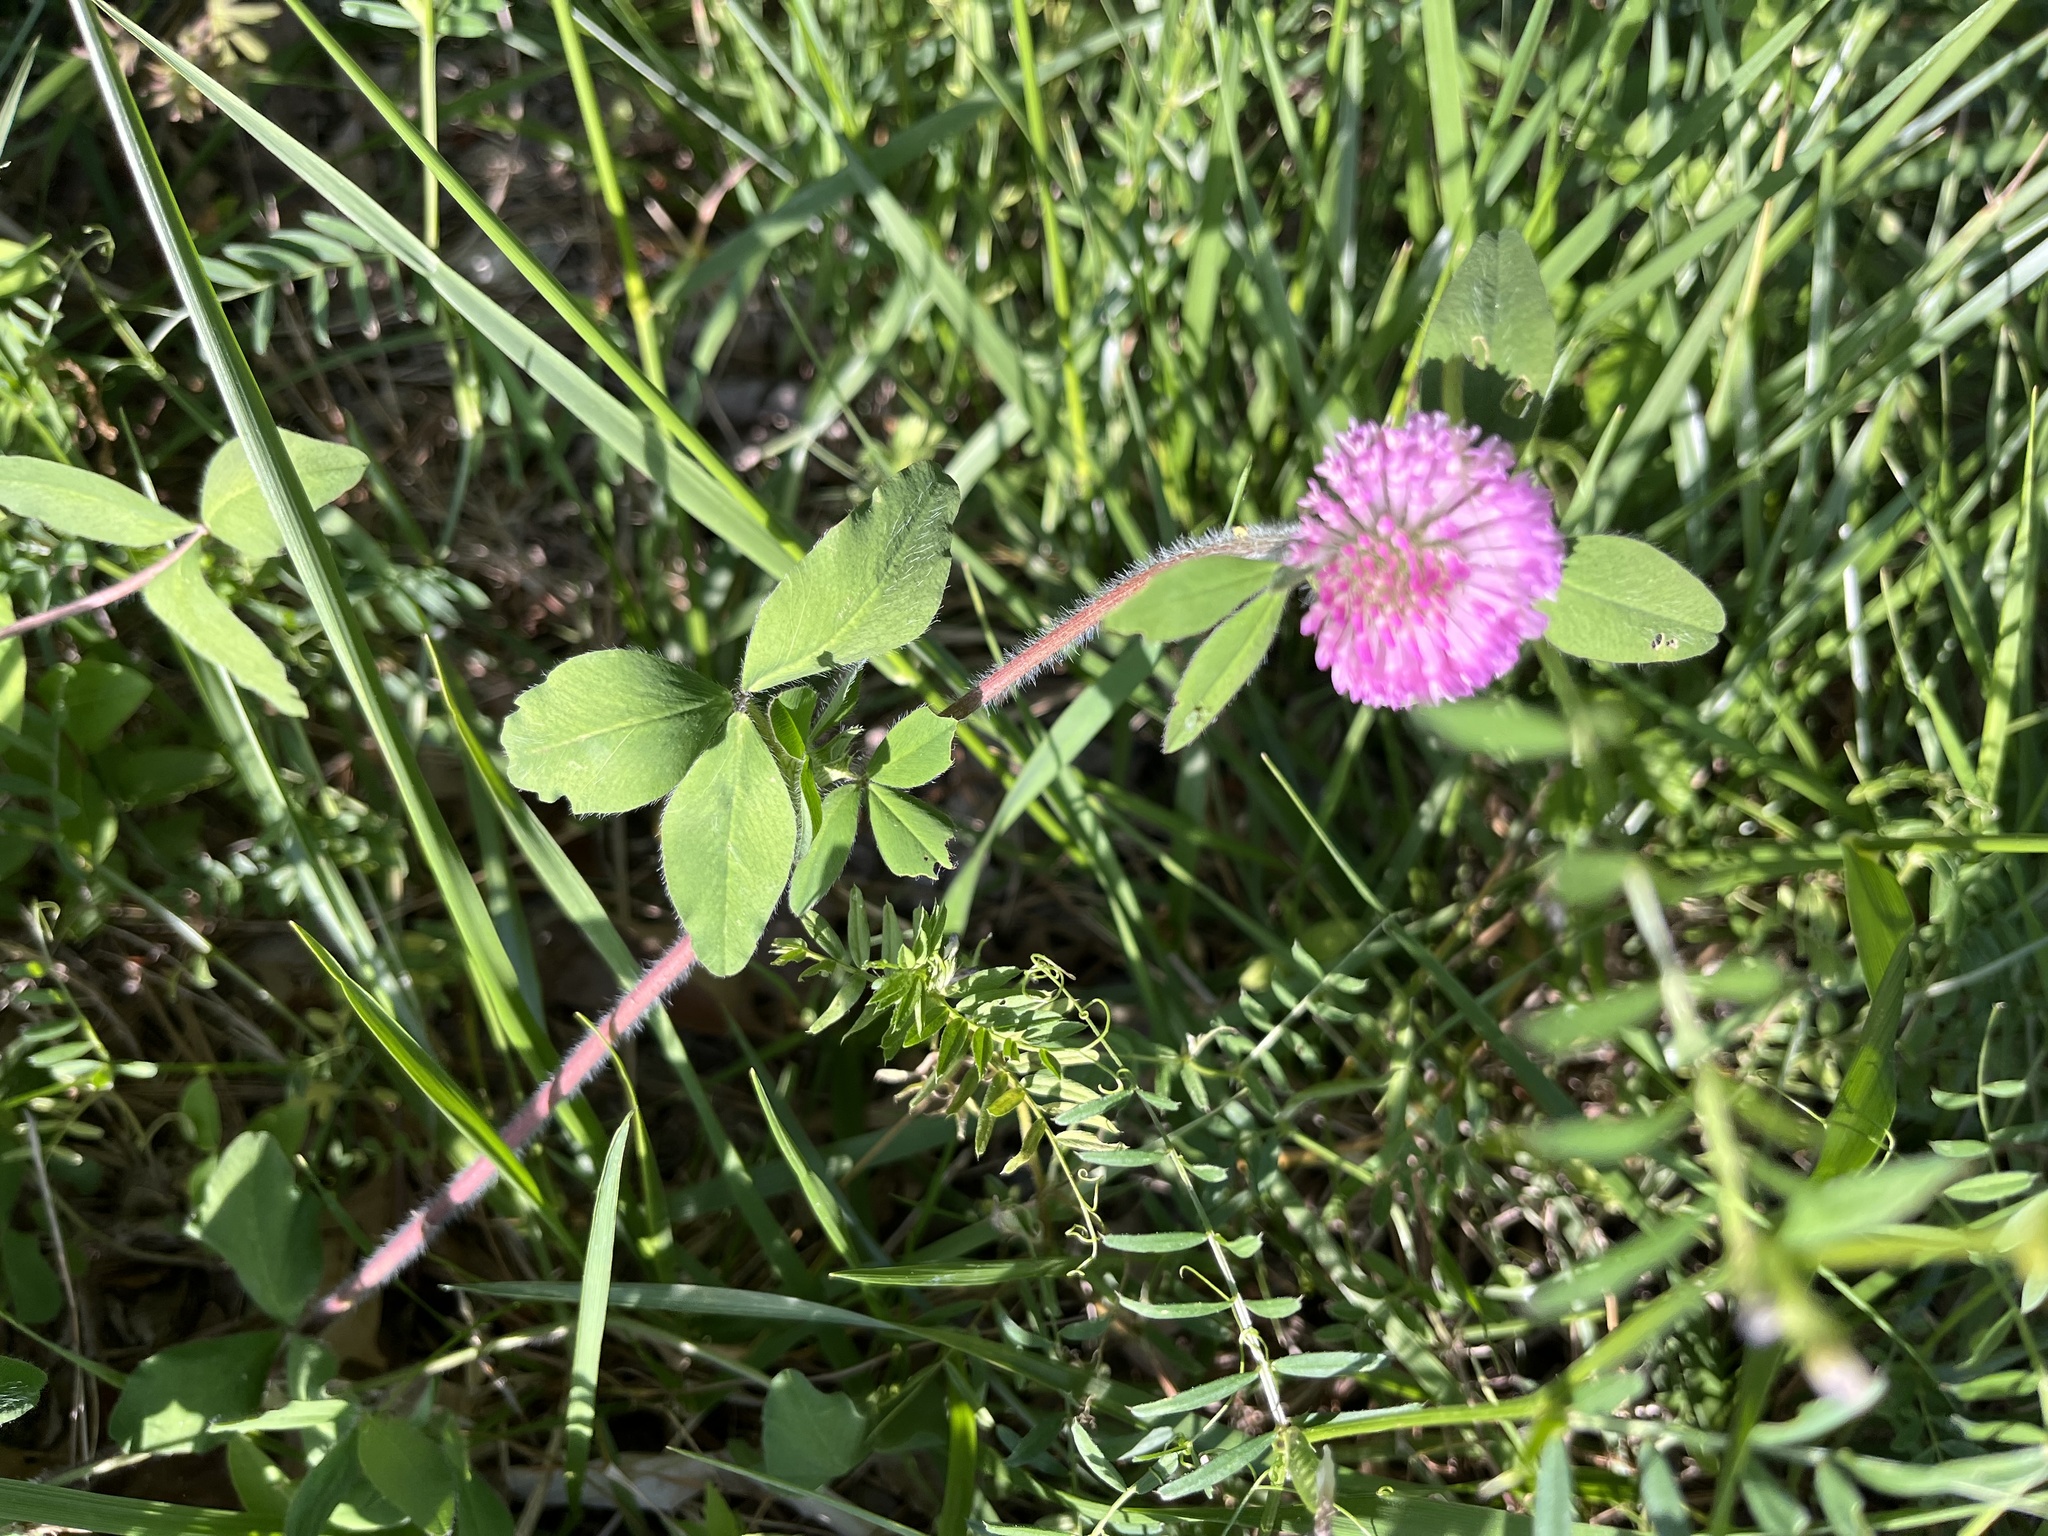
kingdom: Plantae
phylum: Tracheophyta
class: Magnoliopsida
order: Fabales
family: Fabaceae
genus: Trifolium
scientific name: Trifolium pratense
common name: Red clover
